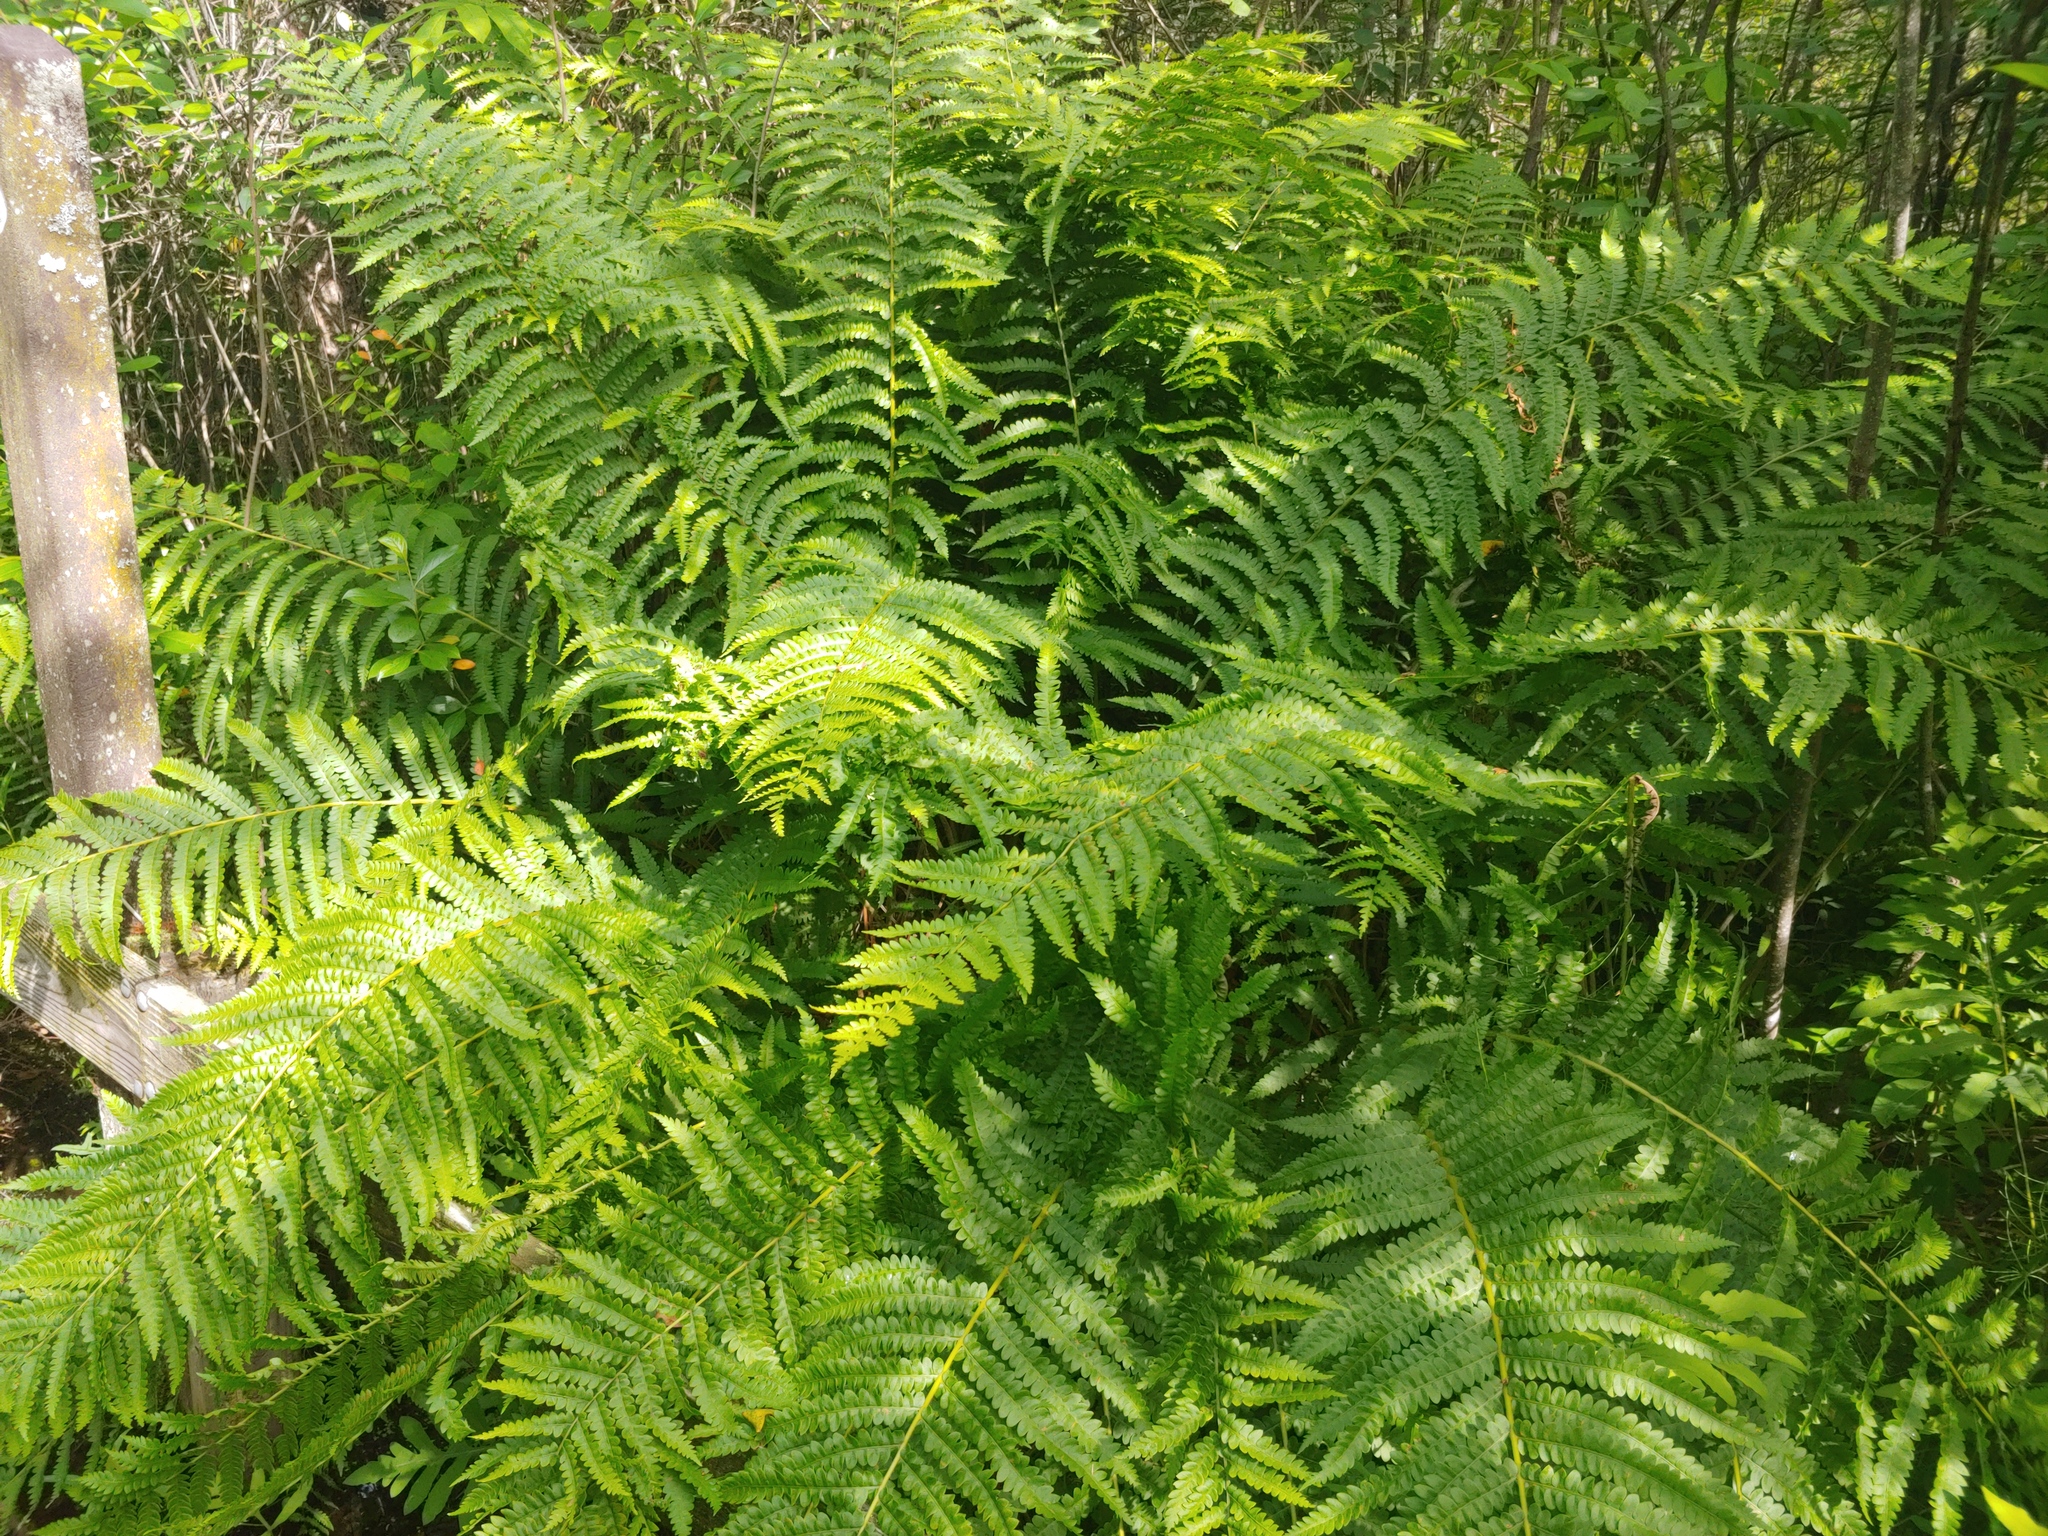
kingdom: Plantae
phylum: Tracheophyta
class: Polypodiopsida
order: Osmundales
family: Osmundaceae
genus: Osmundastrum
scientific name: Osmundastrum cinnamomeum
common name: Cinnamon fern
